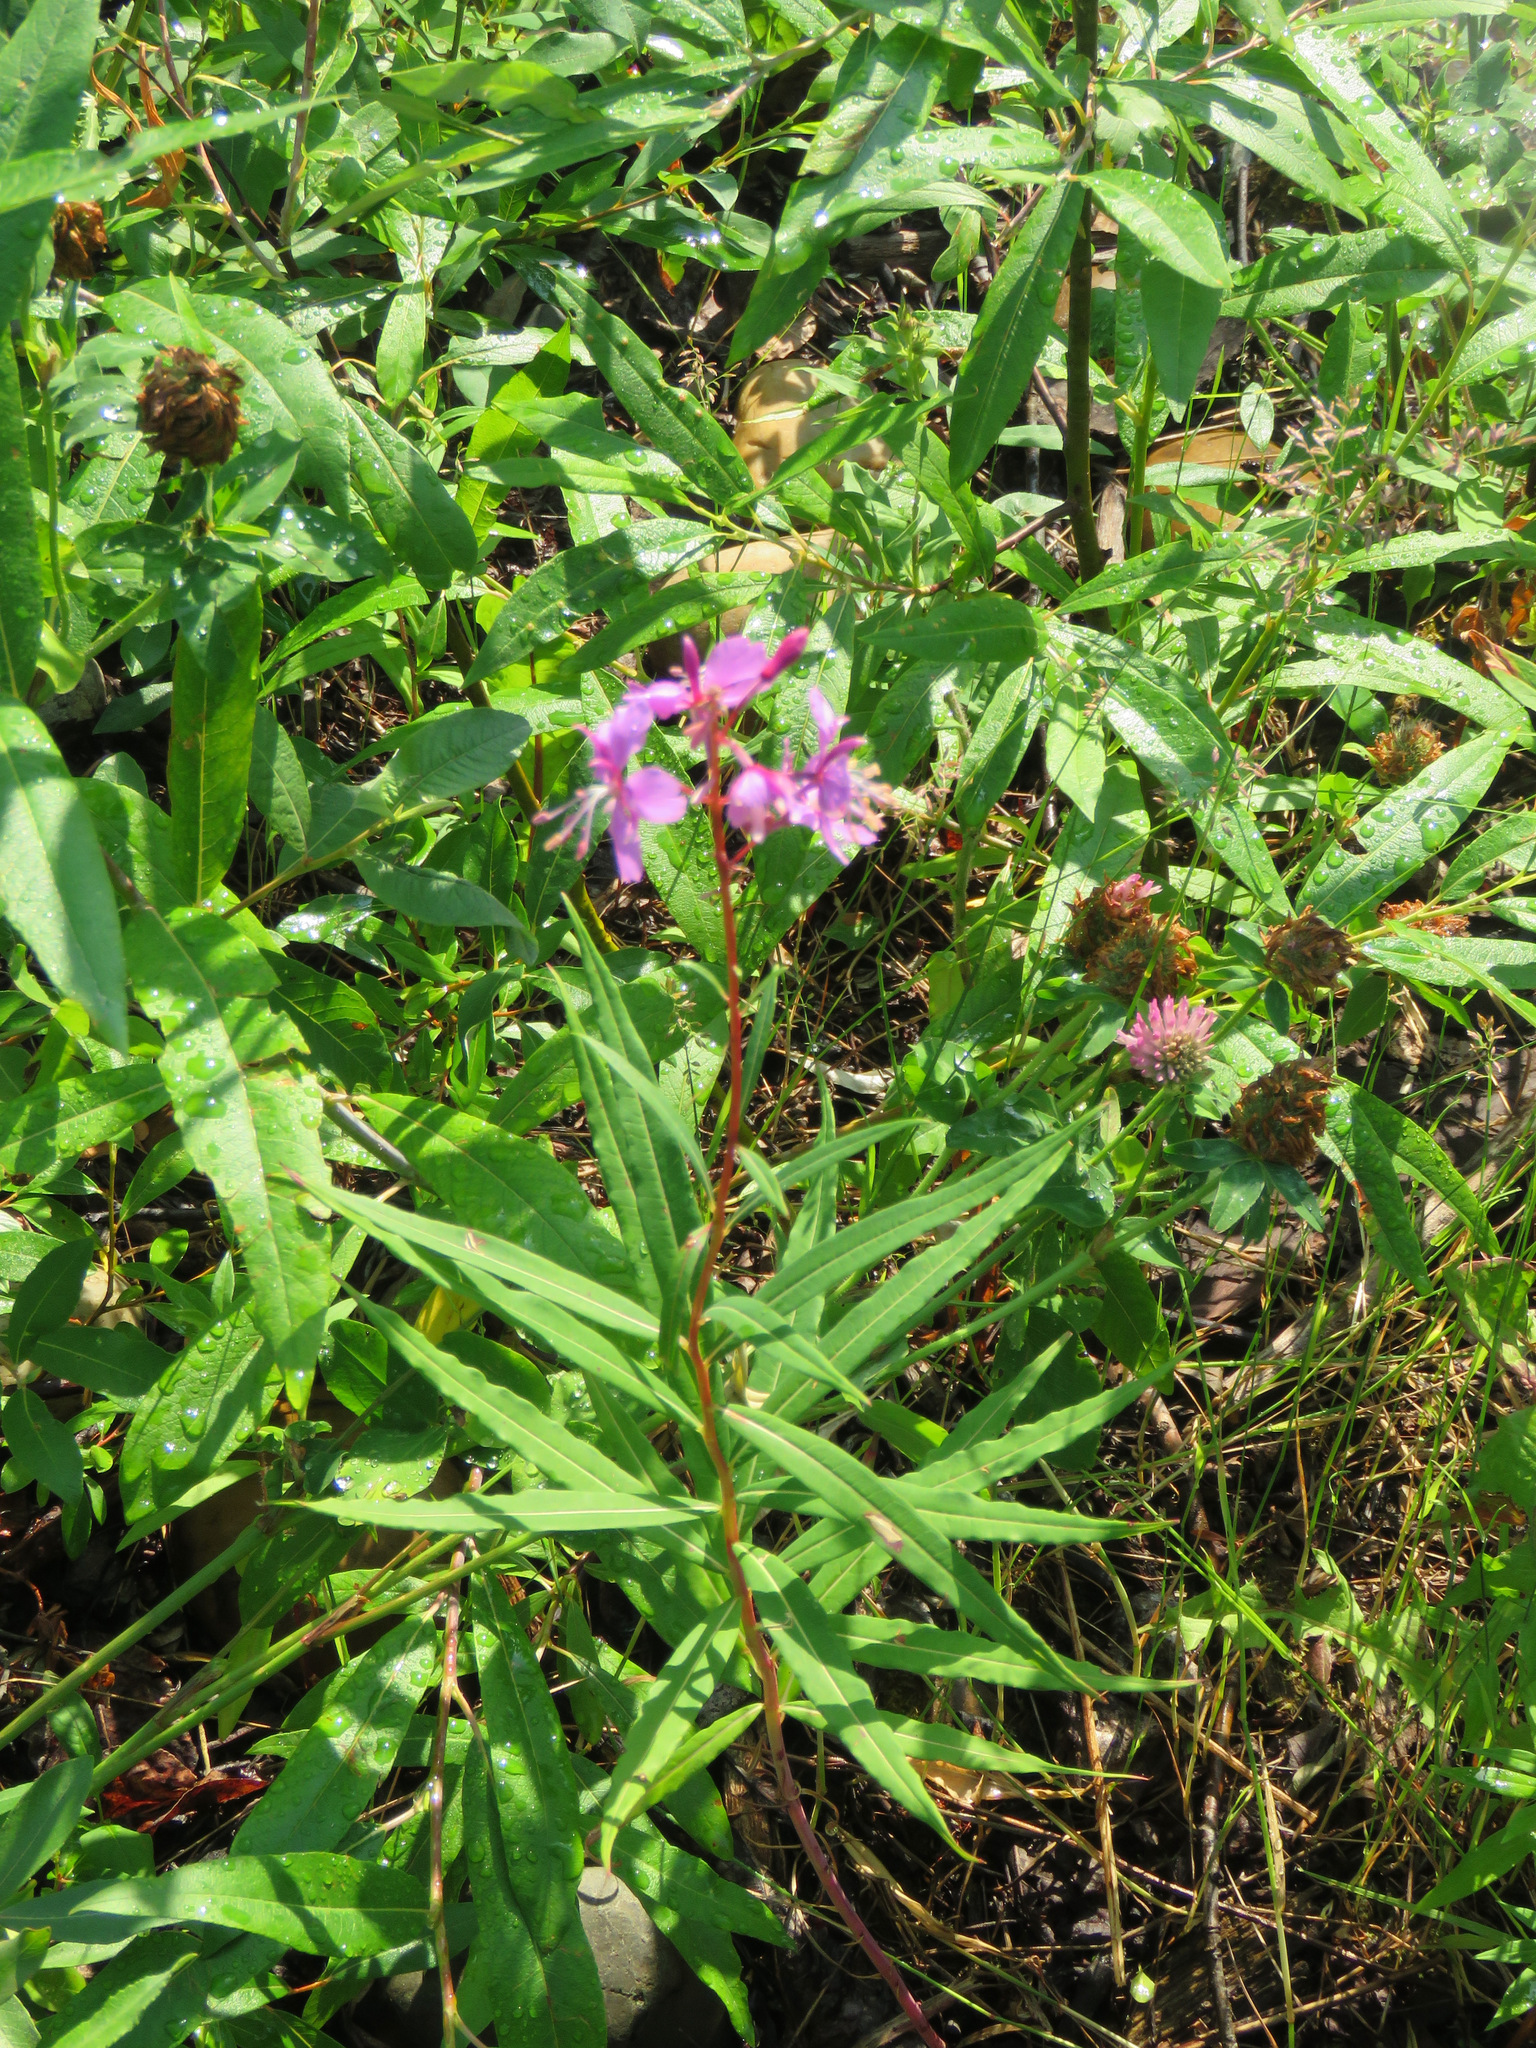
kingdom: Plantae
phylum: Tracheophyta
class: Magnoliopsida
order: Myrtales
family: Onagraceae
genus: Chamaenerion
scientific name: Chamaenerion angustifolium
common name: Fireweed
